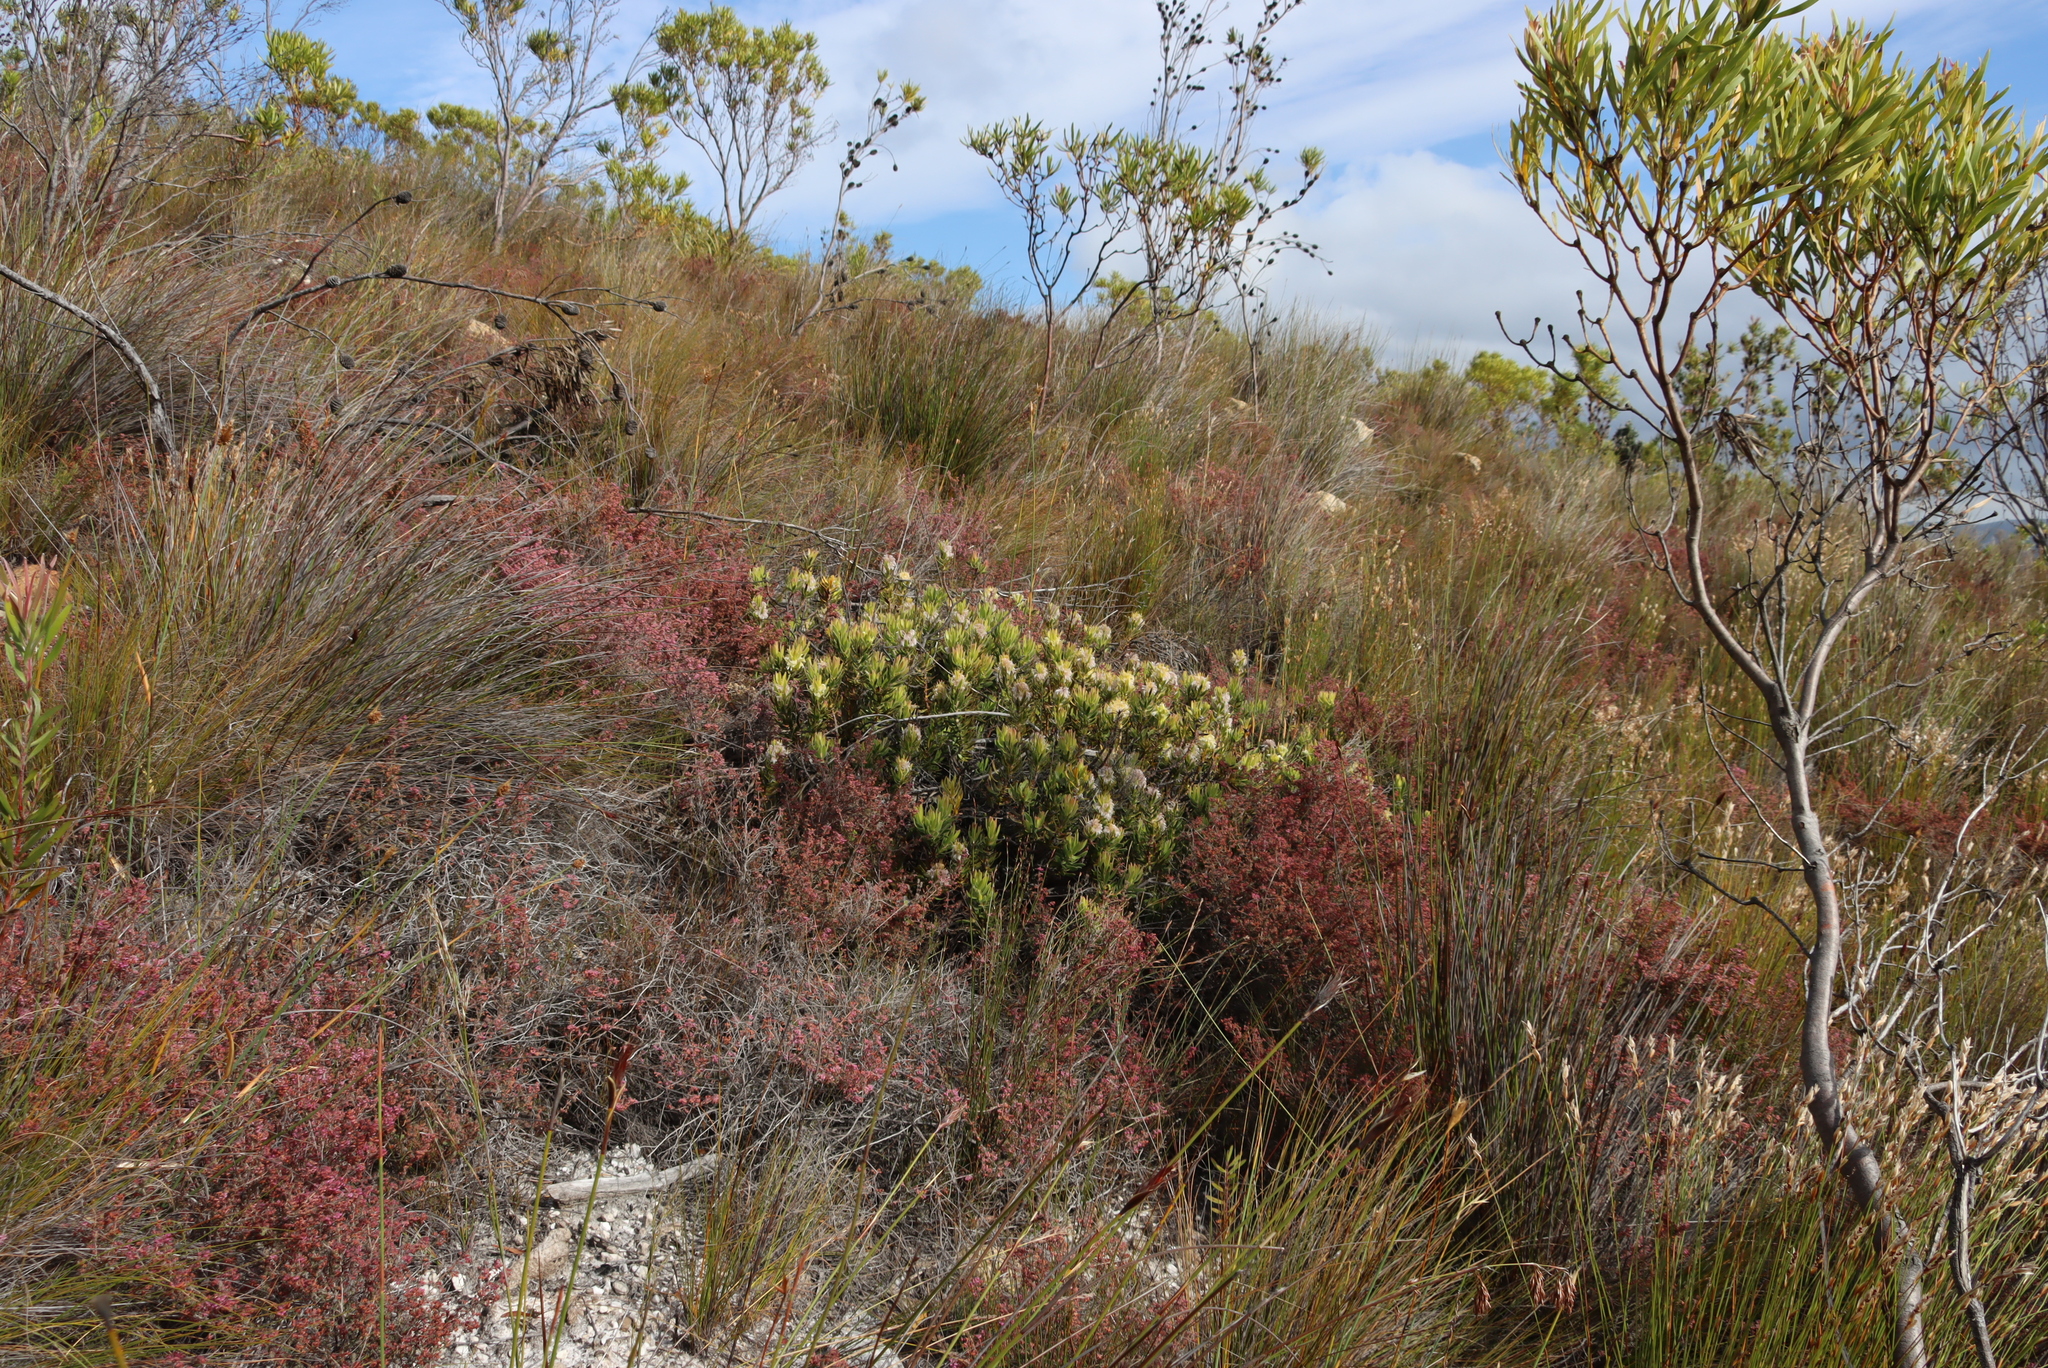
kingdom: Plantae
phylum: Tracheophyta
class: Magnoliopsida
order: Proteales
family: Proteaceae
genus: Mimetes
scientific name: Mimetes cucullatus
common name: Common pagoda
